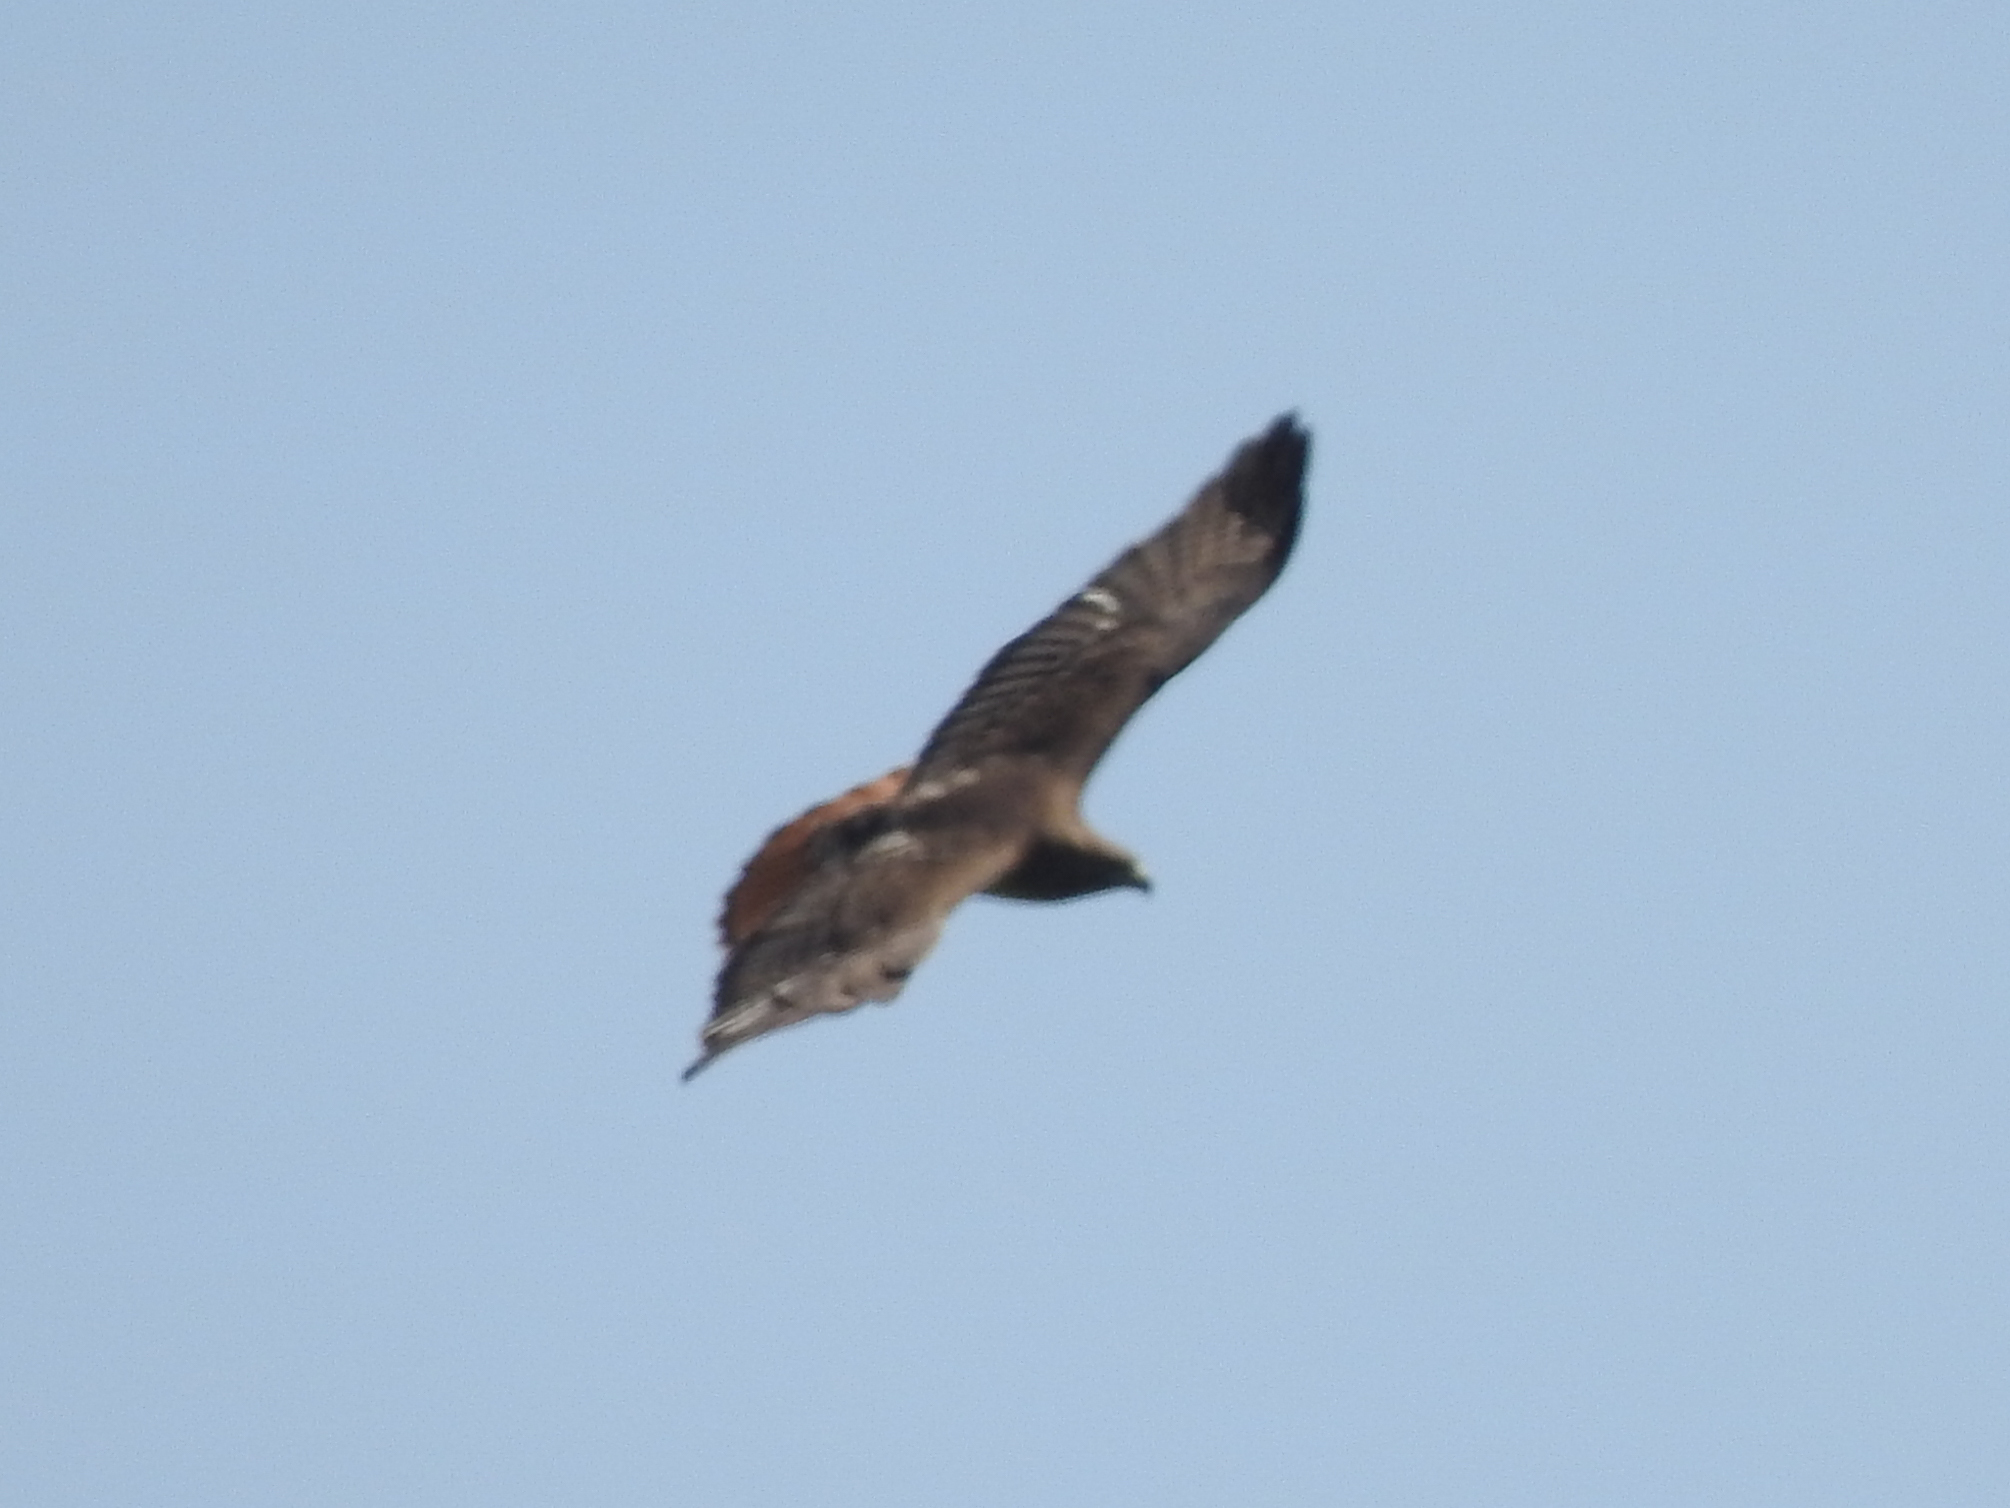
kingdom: Animalia
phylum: Chordata
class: Aves
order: Accipitriformes
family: Accipitridae
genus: Buteo
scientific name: Buteo jamaicensis
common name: Red-tailed hawk
